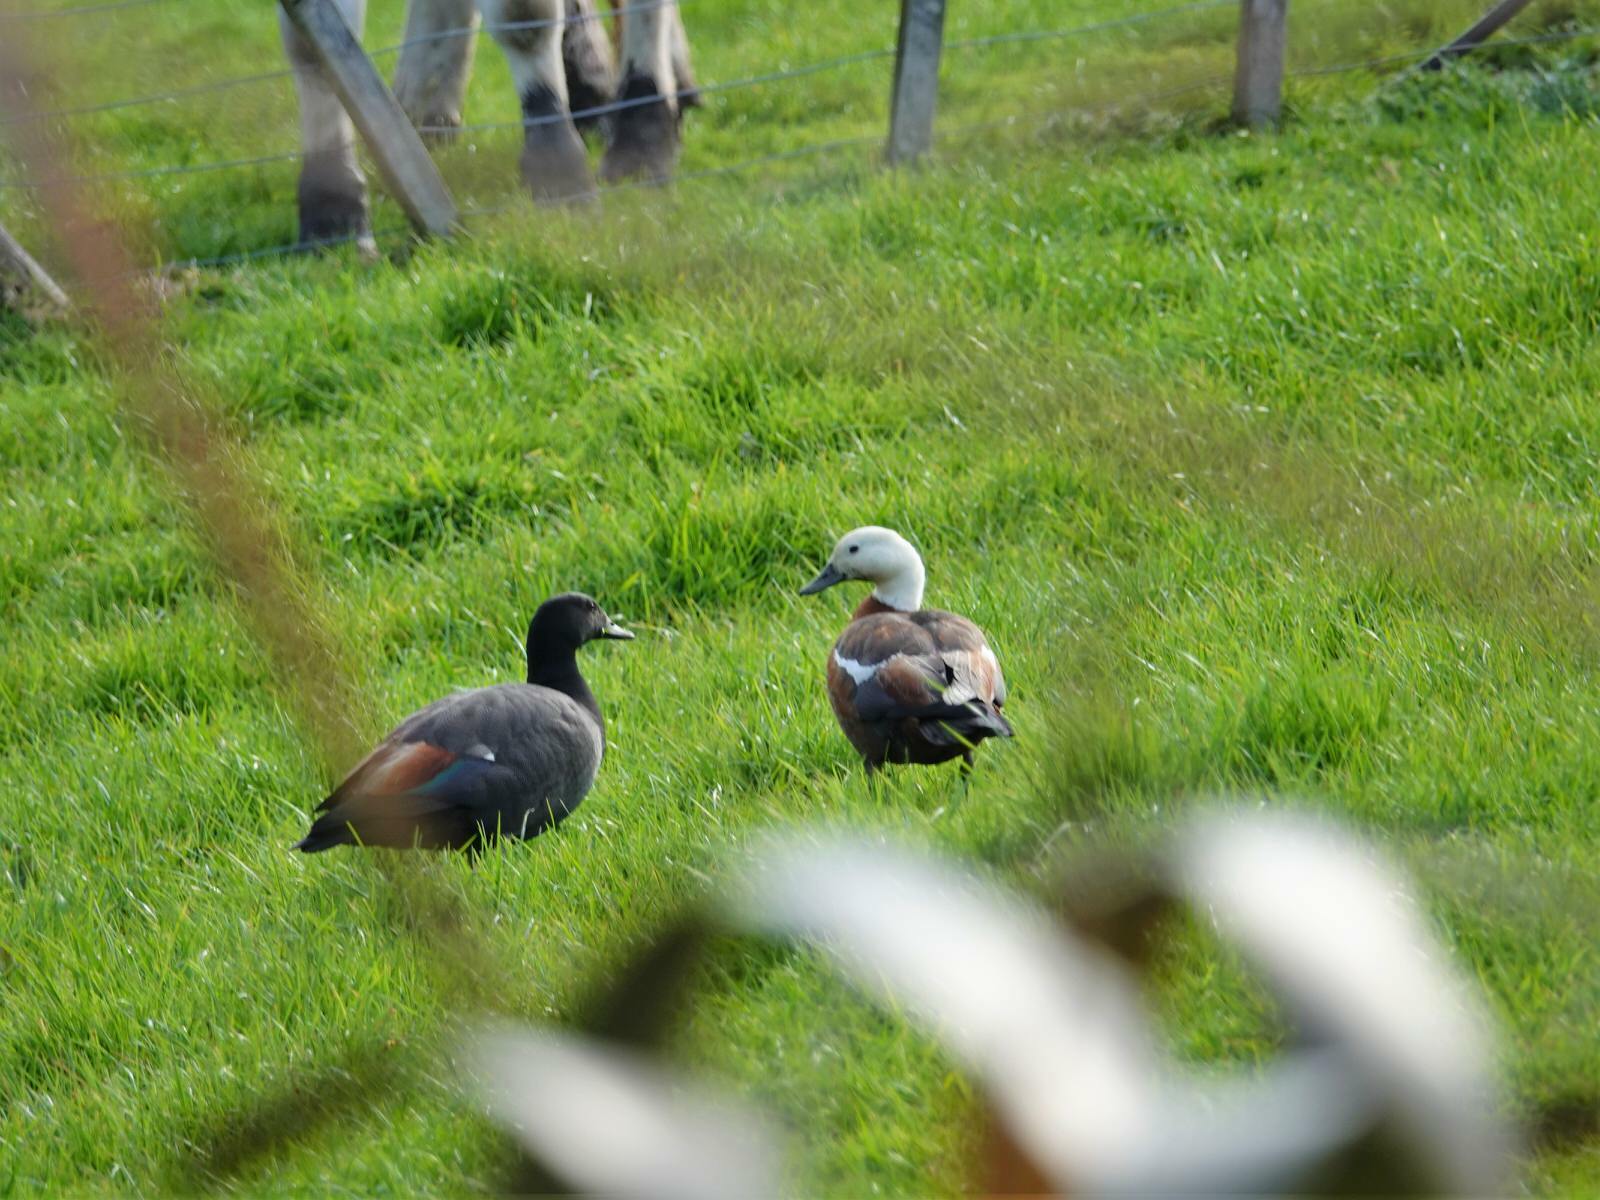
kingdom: Animalia
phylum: Chordata
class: Aves
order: Anseriformes
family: Anatidae
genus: Tadorna
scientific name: Tadorna variegata
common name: Paradise shelduck
